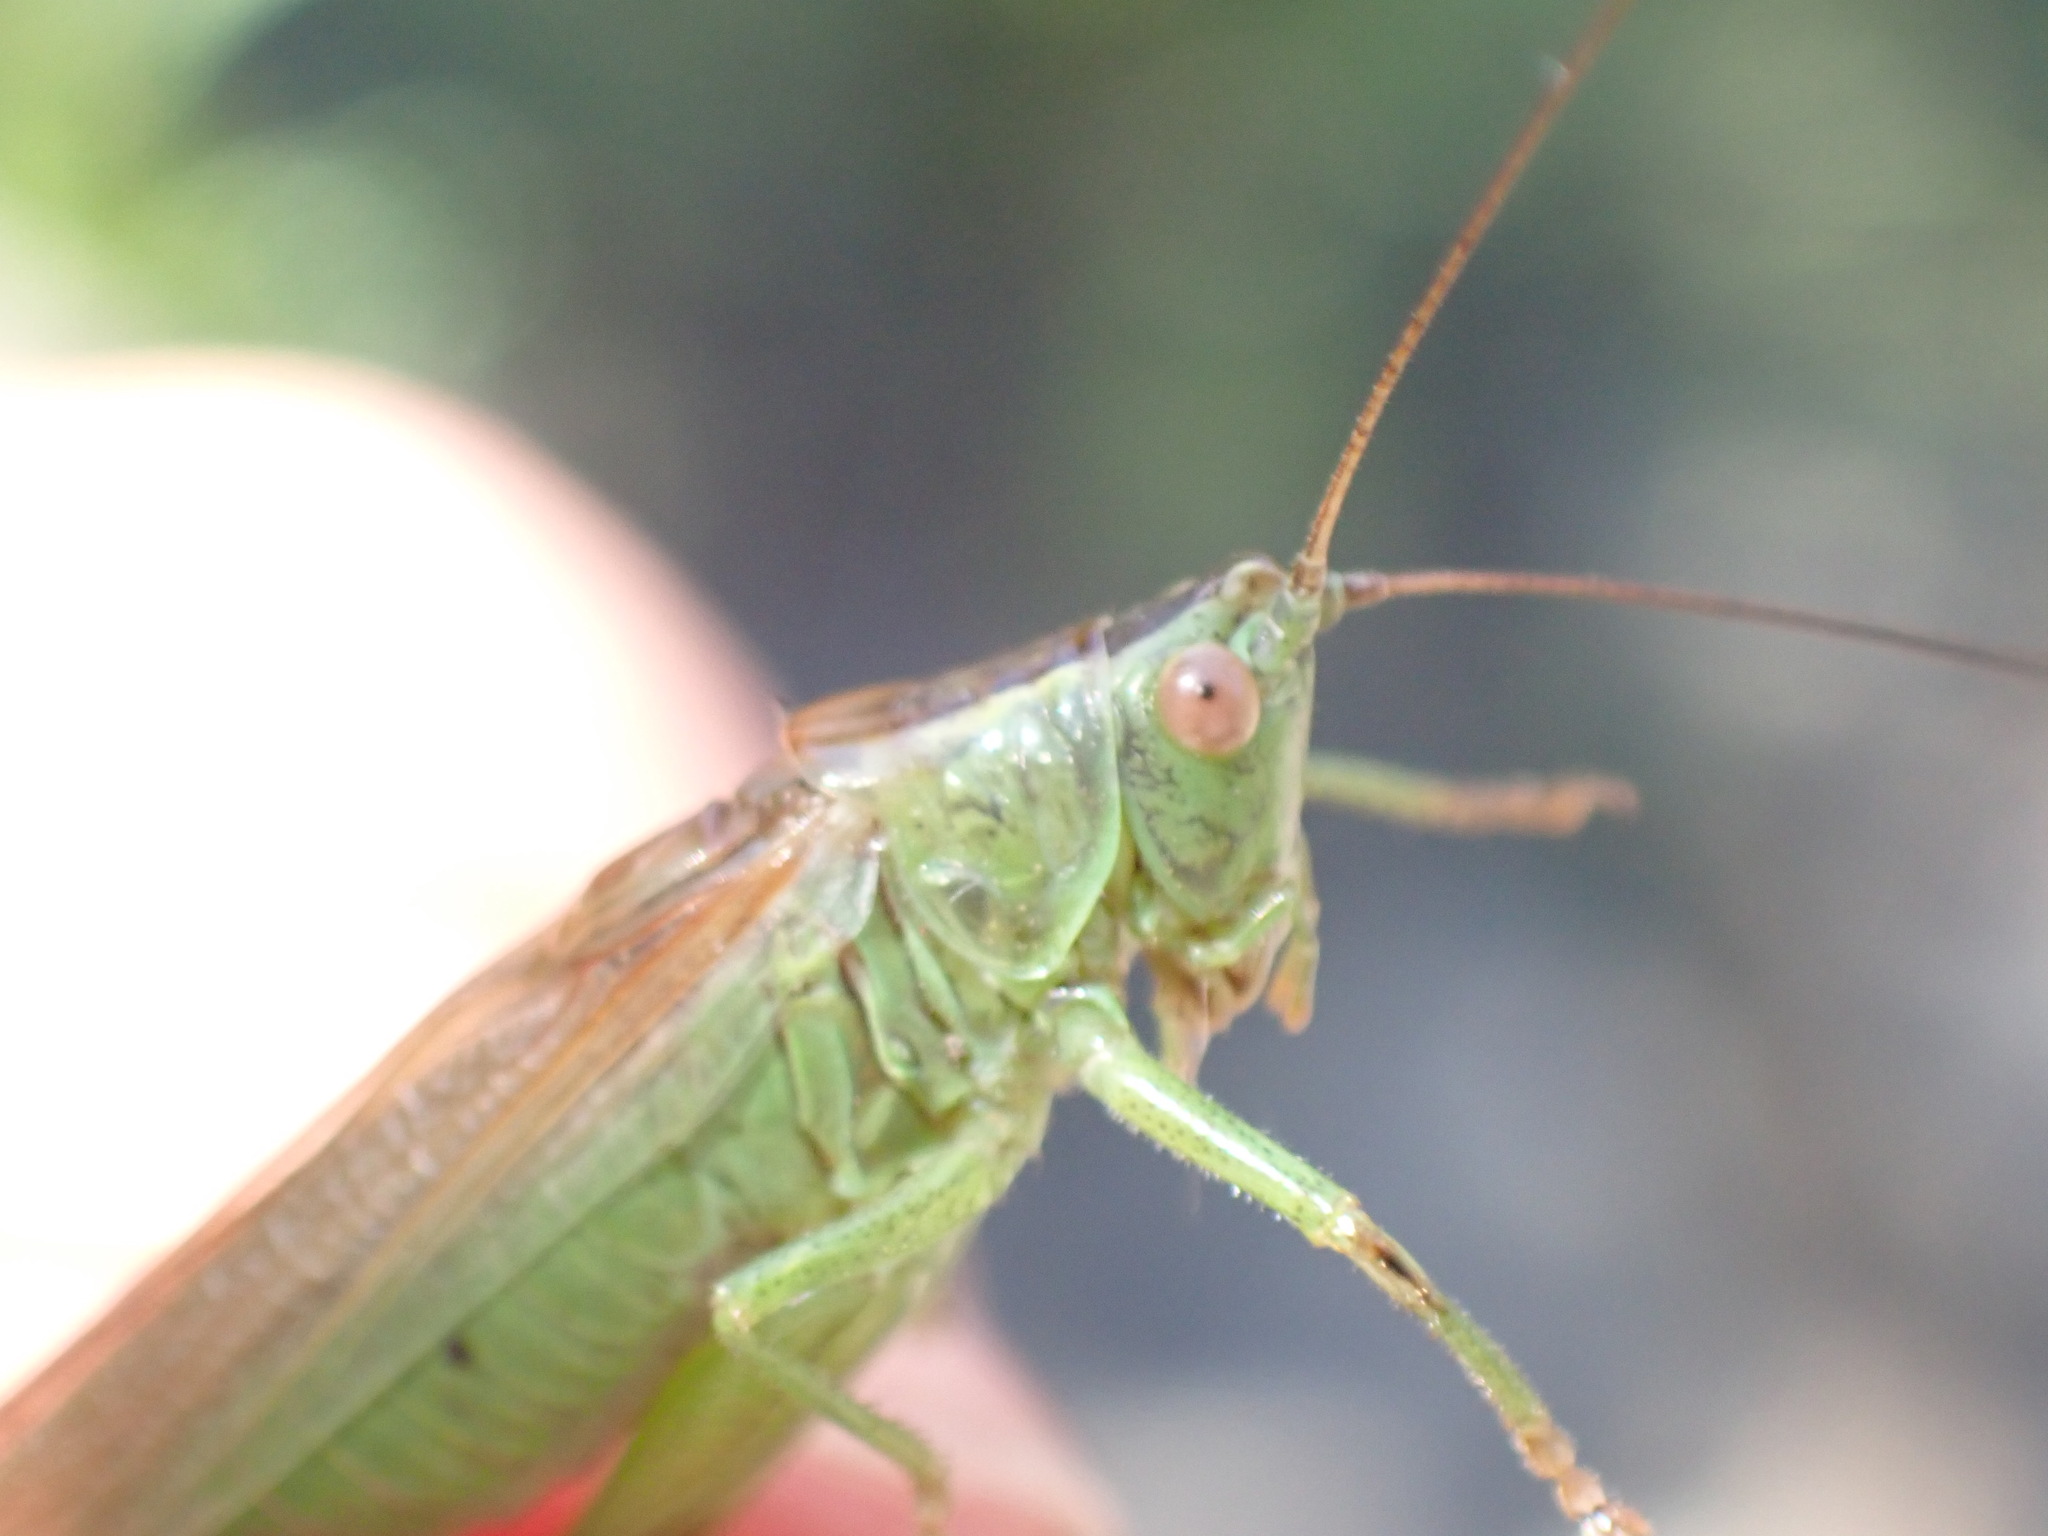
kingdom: Animalia
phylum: Arthropoda
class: Insecta
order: Orthoptera
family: Tettigoniidae
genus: Conocephalus
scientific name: Conocephalus fuscus
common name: Long-winged conehead
